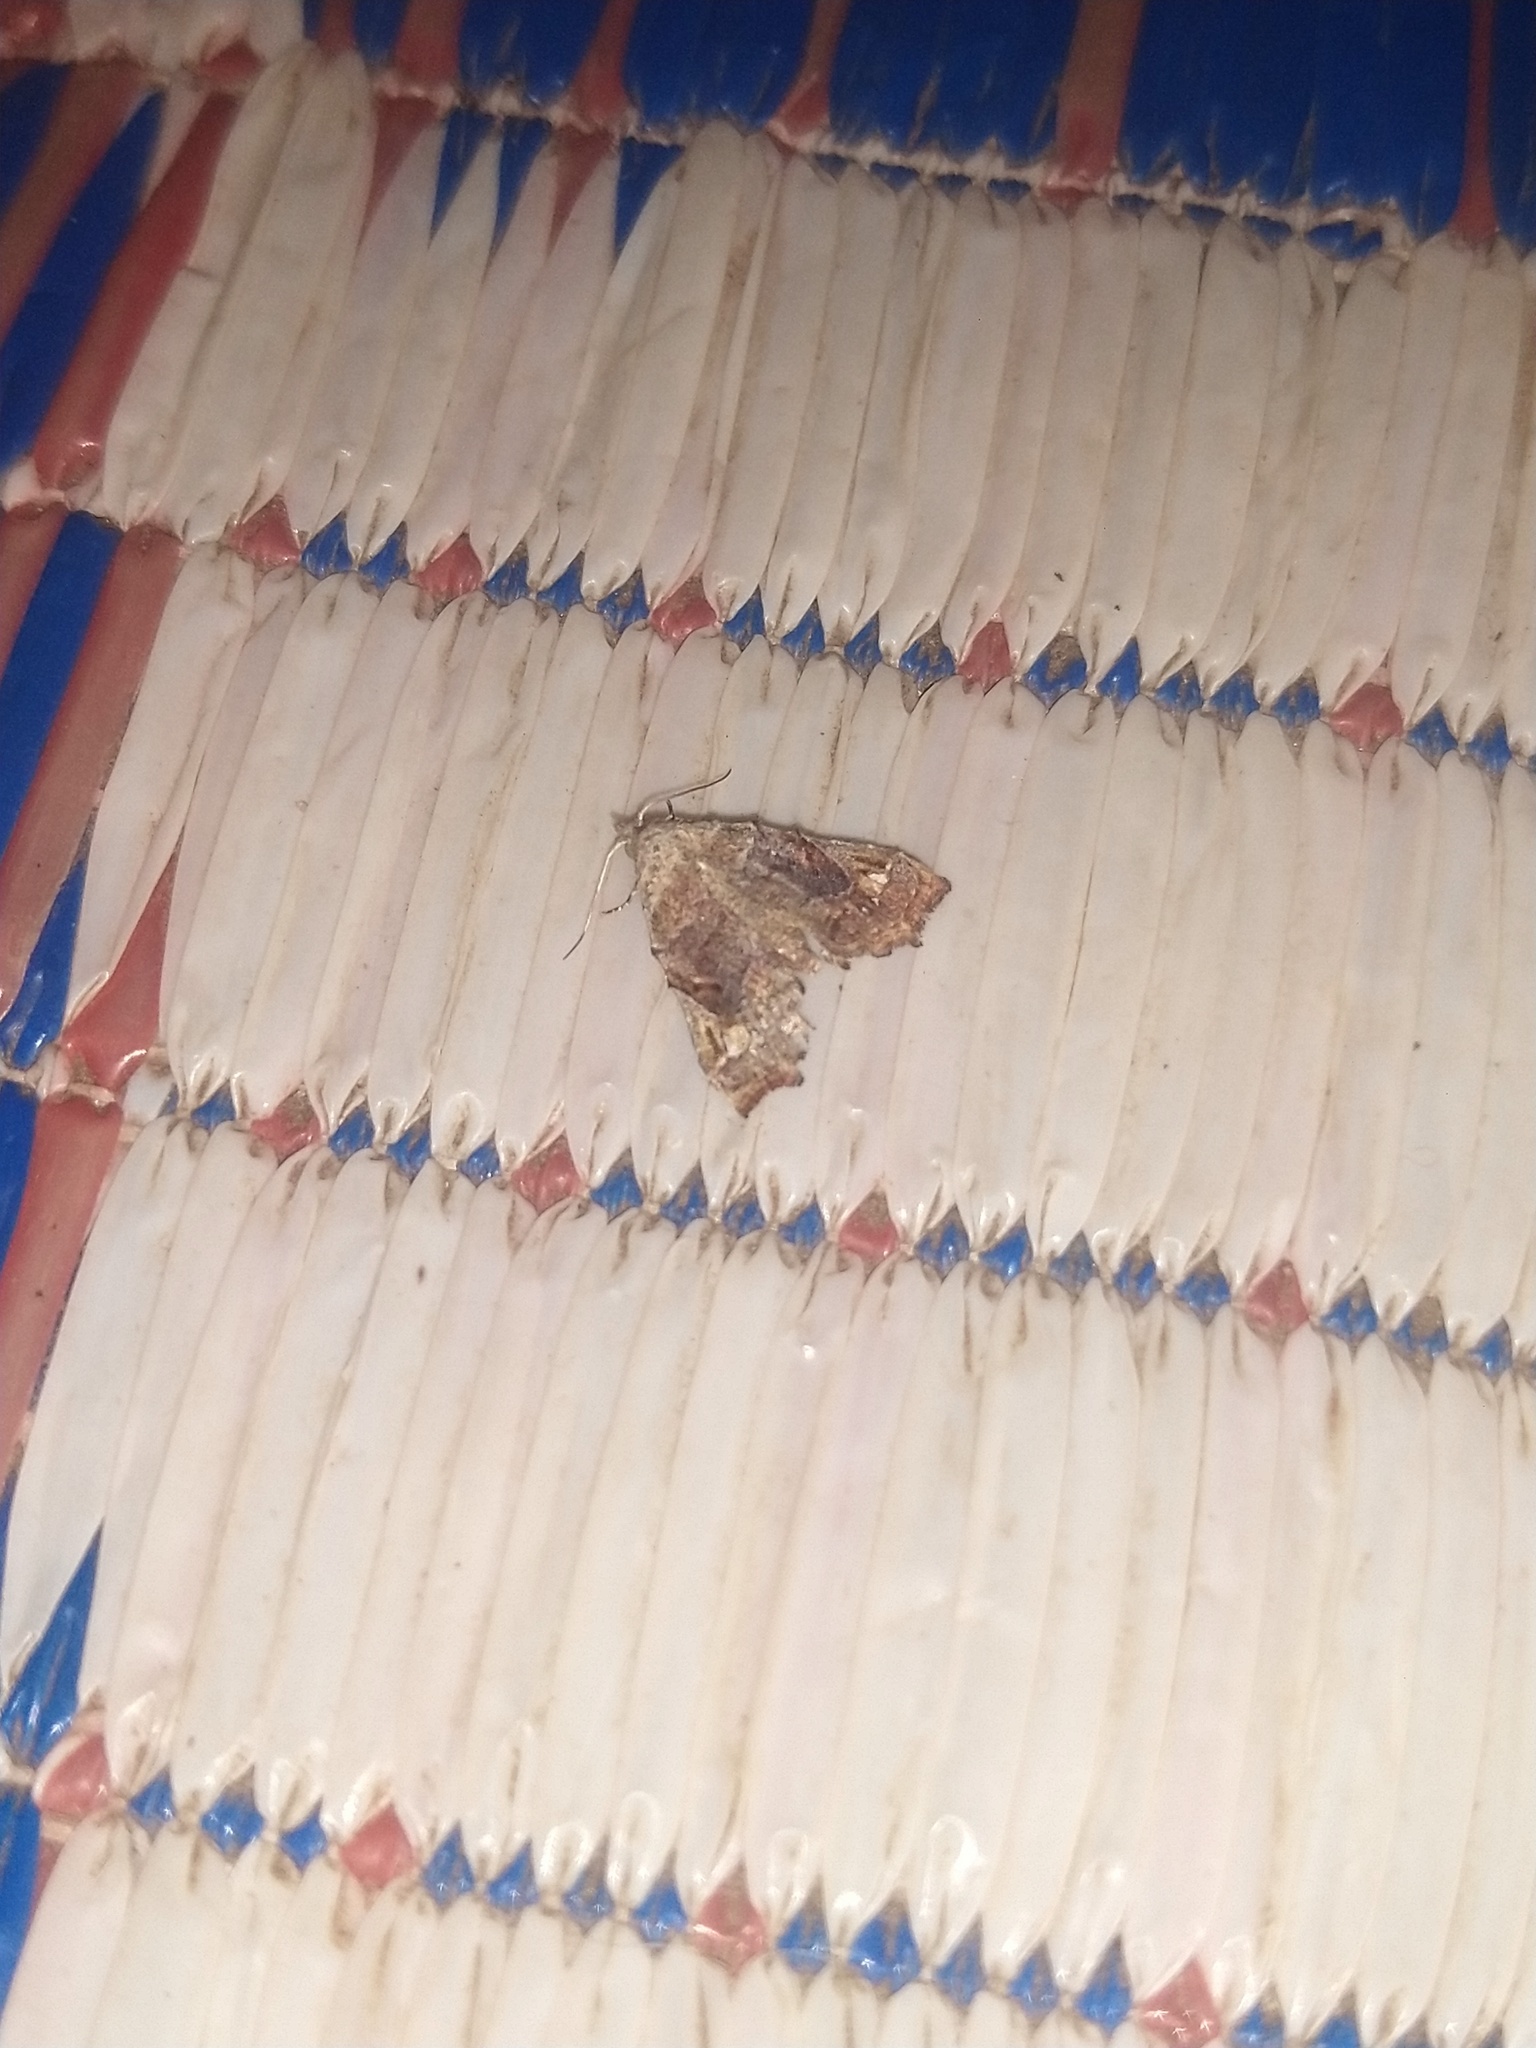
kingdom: Animalia
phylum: Arthropoda
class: Insecta
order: Lepidoptera
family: Erebidae
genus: Hypertrocta
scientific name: Hypertrocta posticalis
